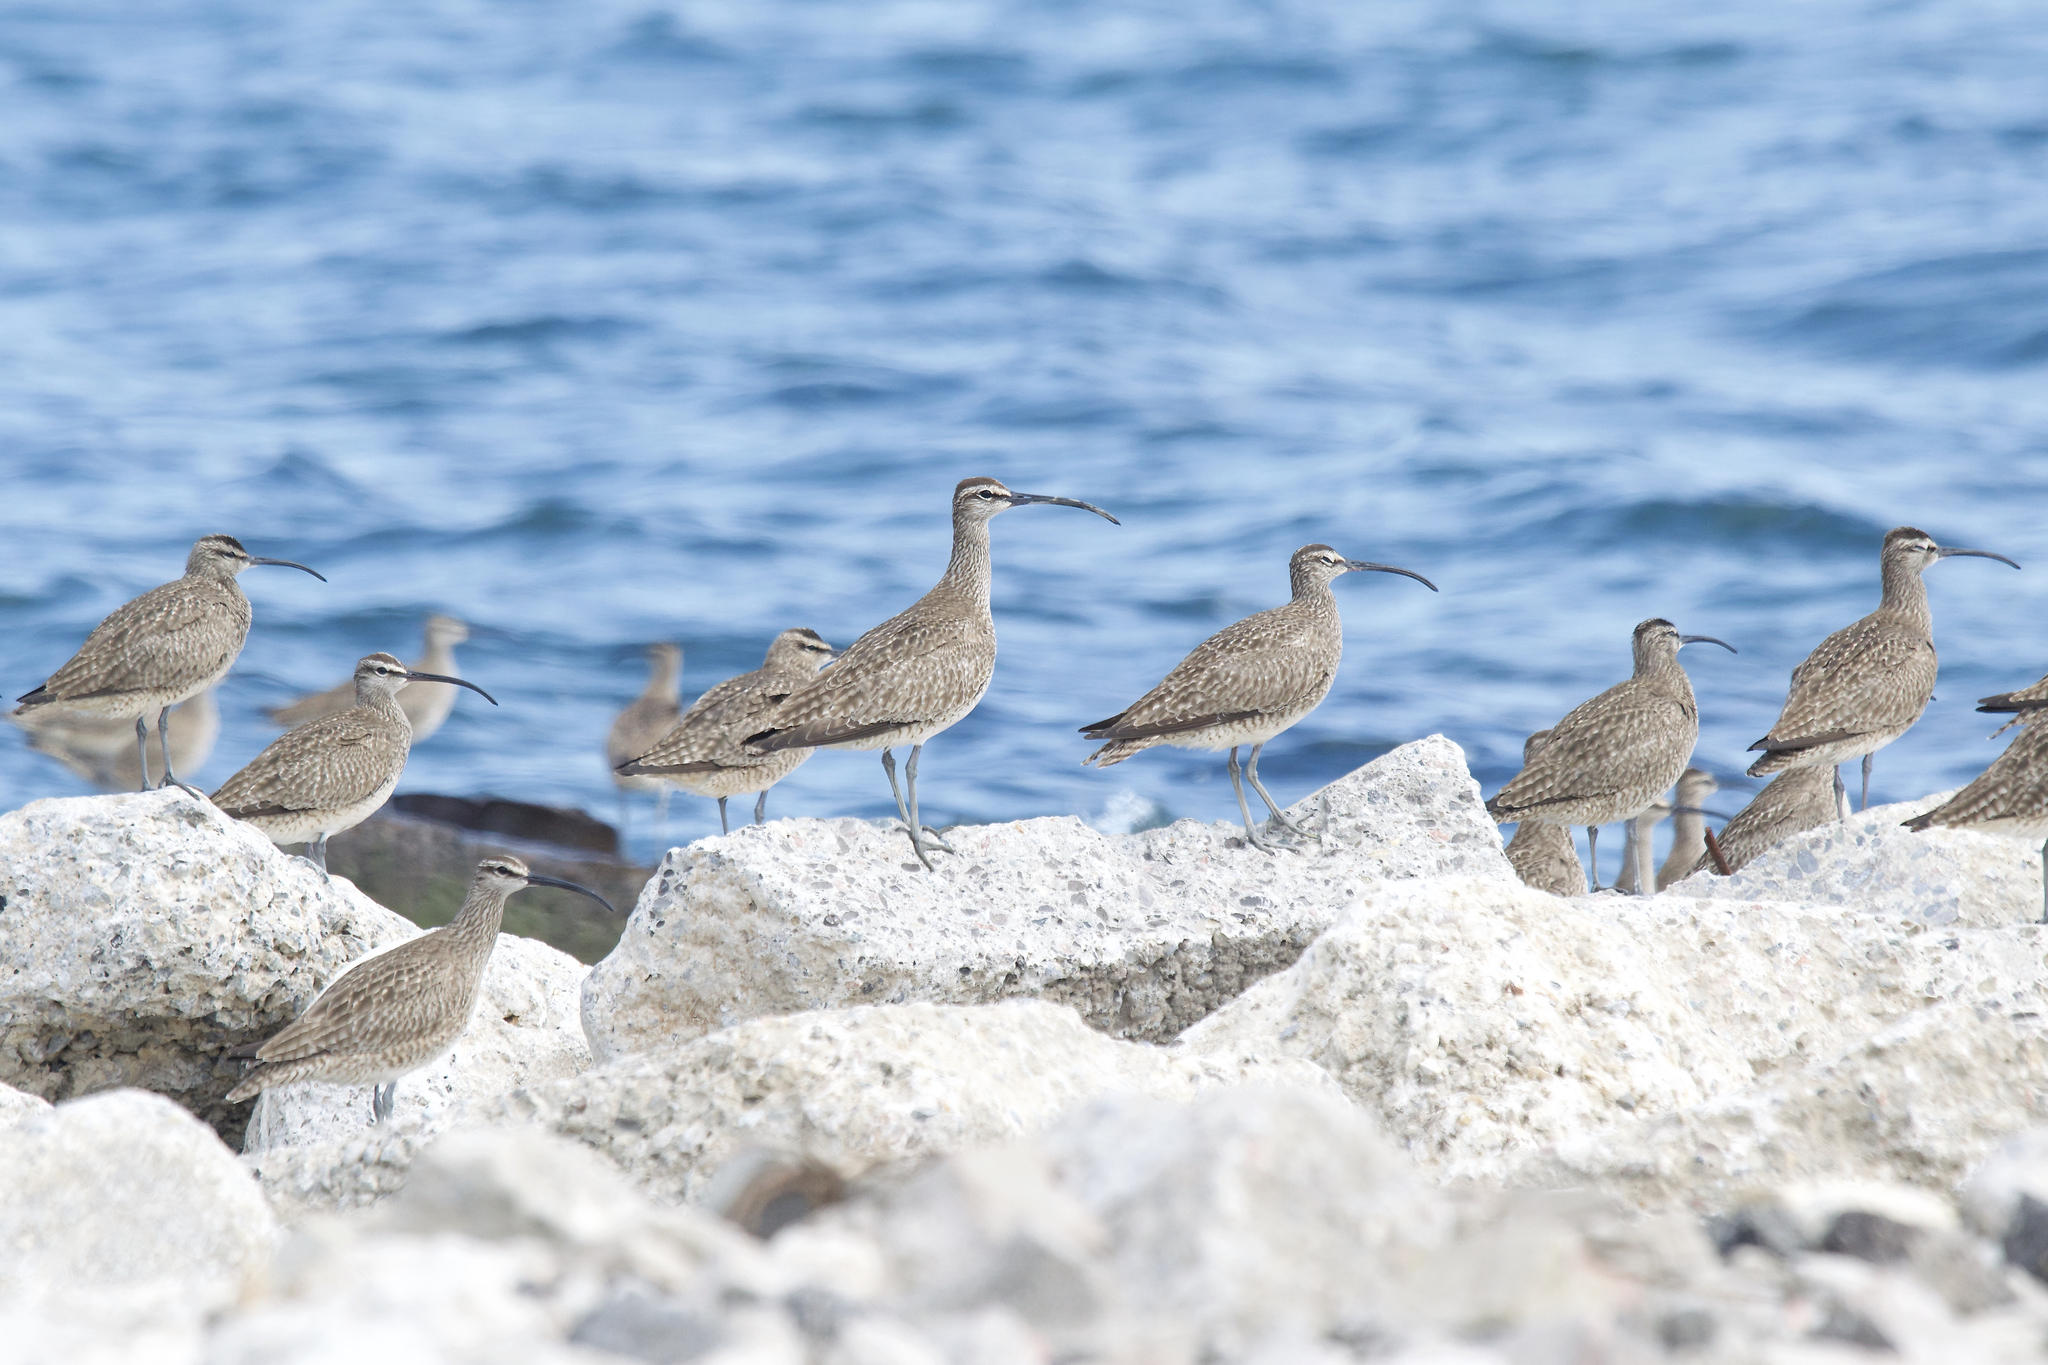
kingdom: Animalia
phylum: Chordata
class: Aves
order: Charadriiformes
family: Scolopacidae
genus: Numenius
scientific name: Numenius phaeopus
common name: Whimbrel
